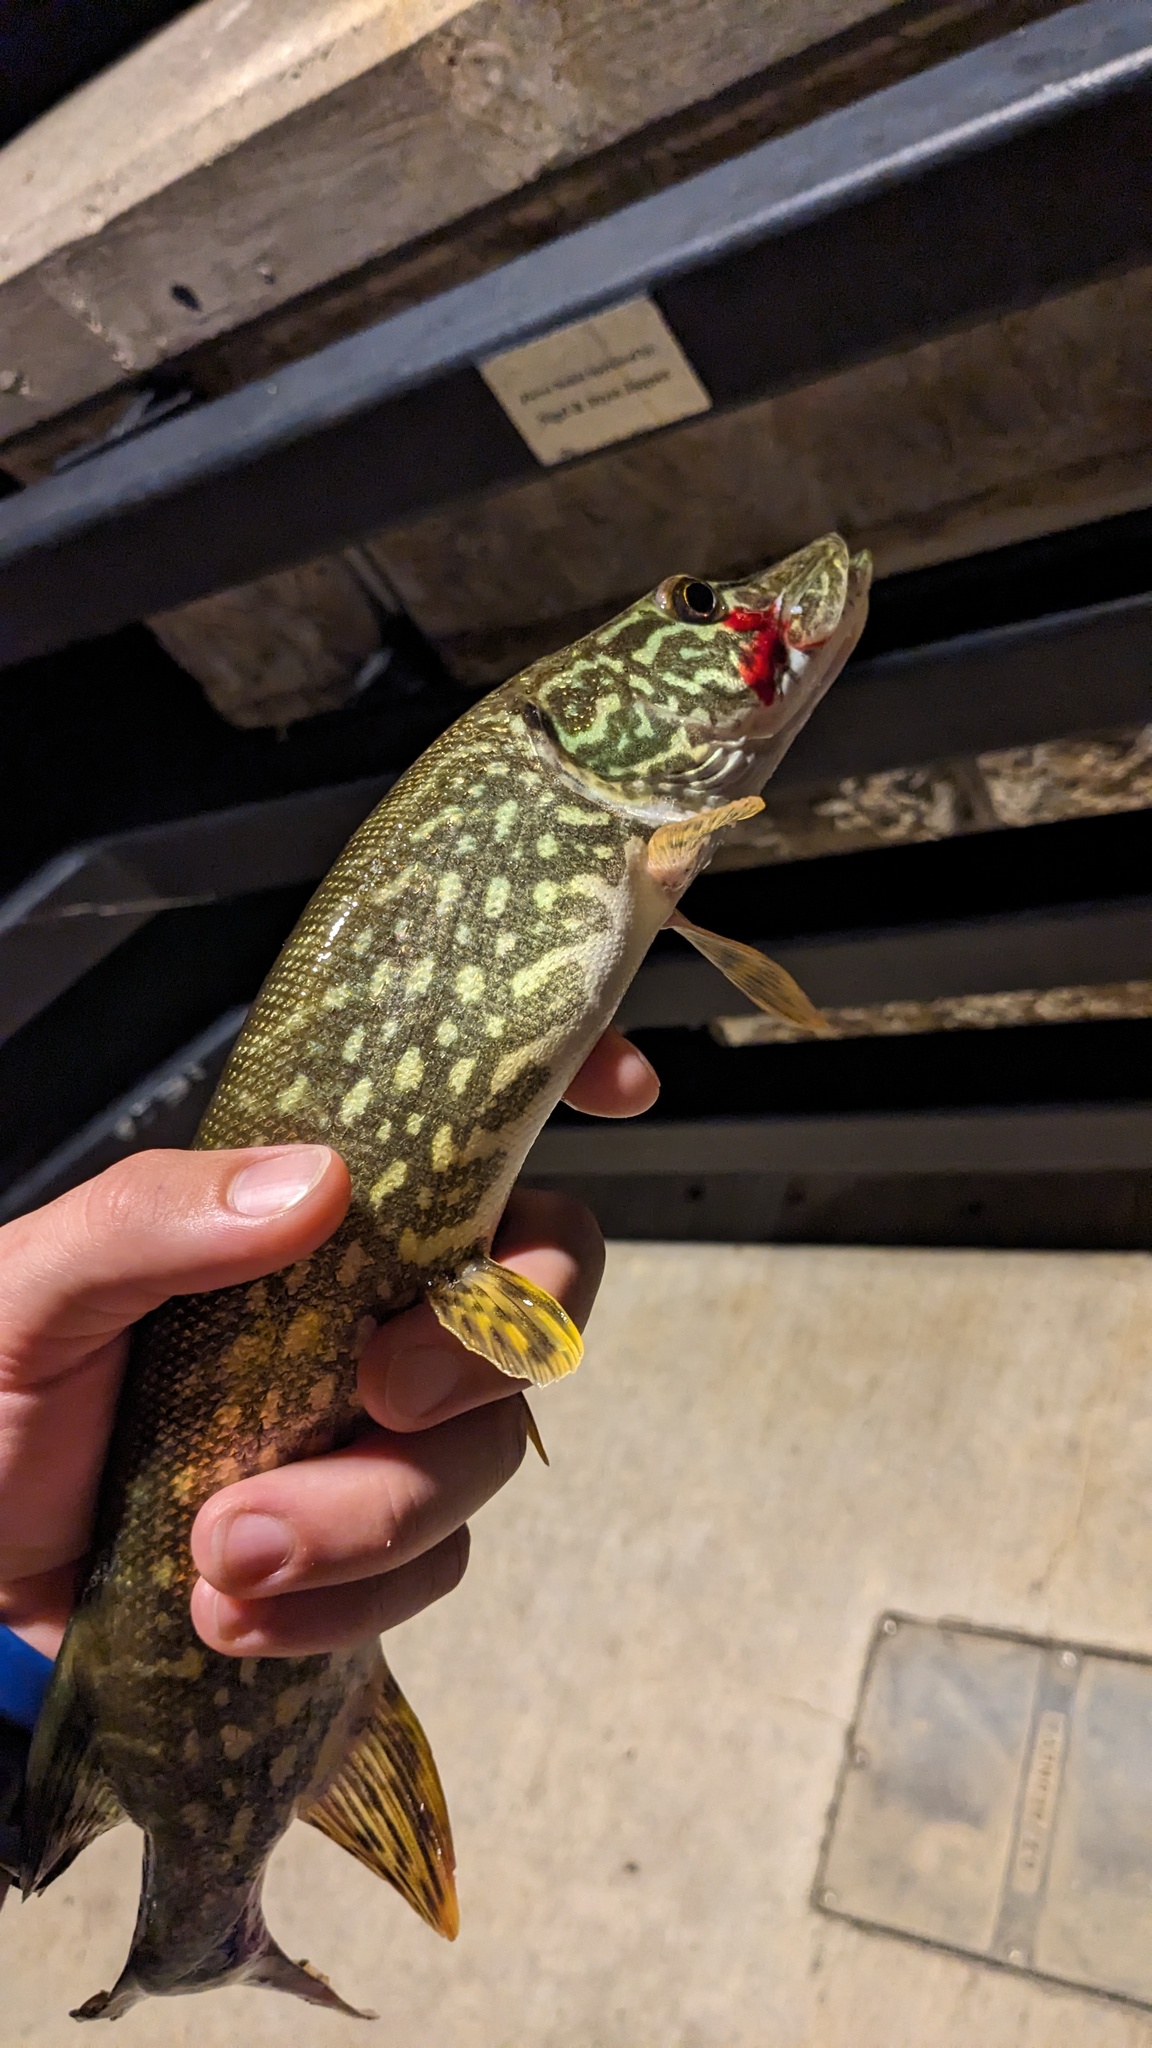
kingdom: Animalia
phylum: Chordata
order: Esociformes
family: Esocidae
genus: Esox
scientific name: Esox lucius
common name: Northern pike
